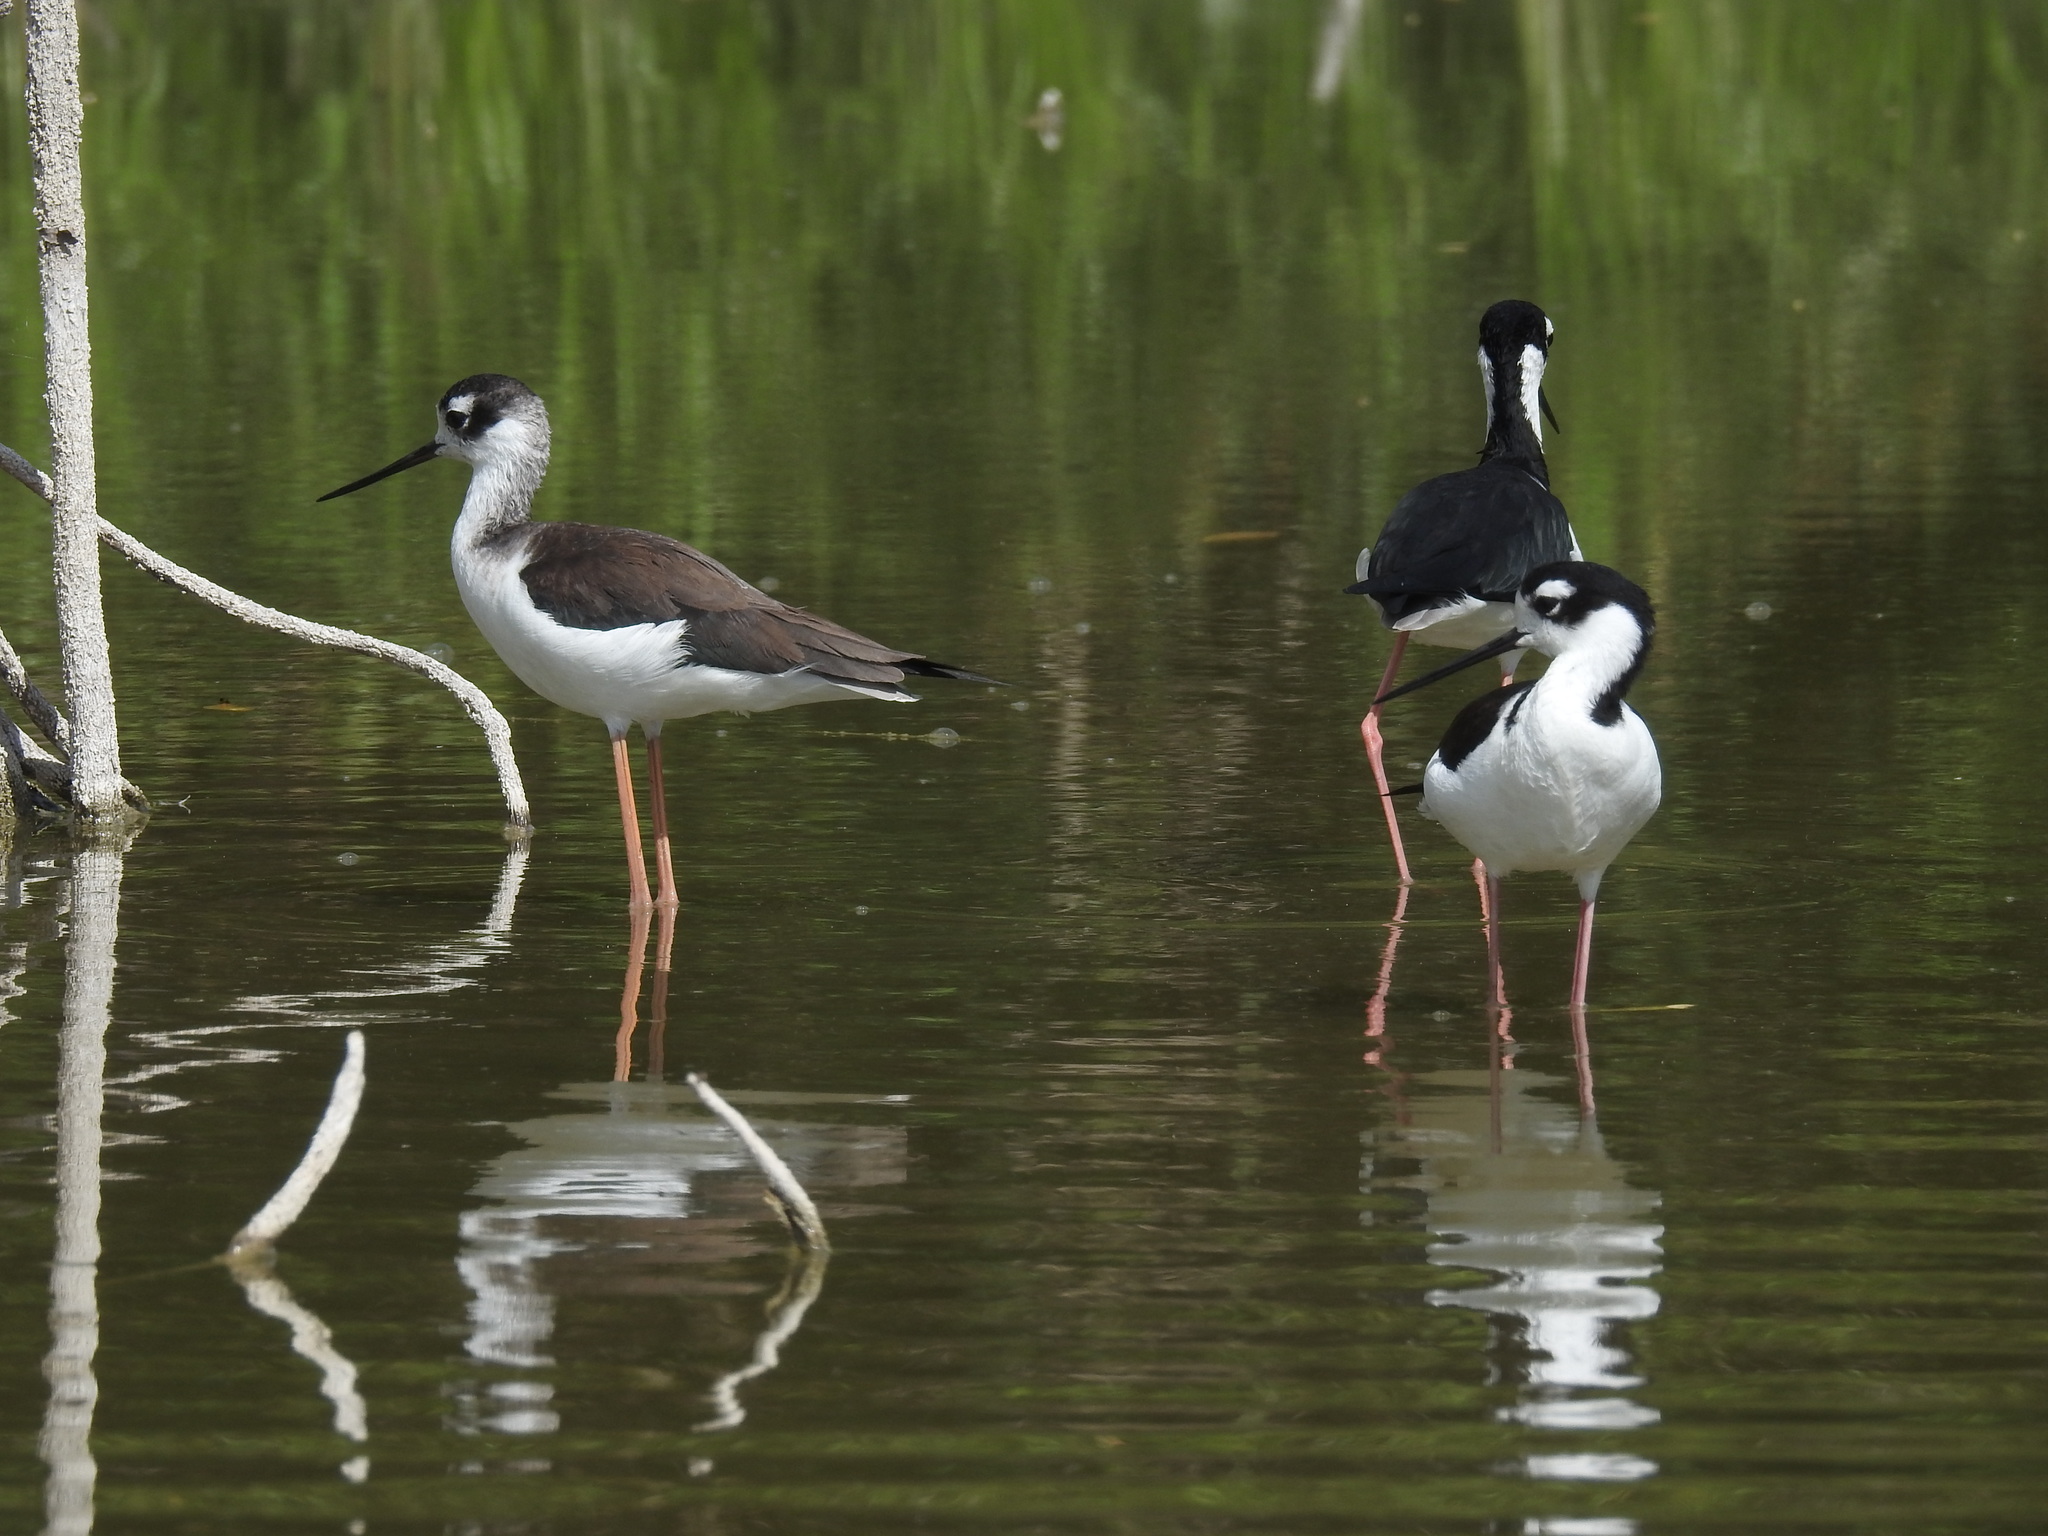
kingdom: Animalia
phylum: Chordata
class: Aves
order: Charadriiformes
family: Recurvirostridae
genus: Himantopus
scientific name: Himantopus mexicanus
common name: Black-necked stilt
